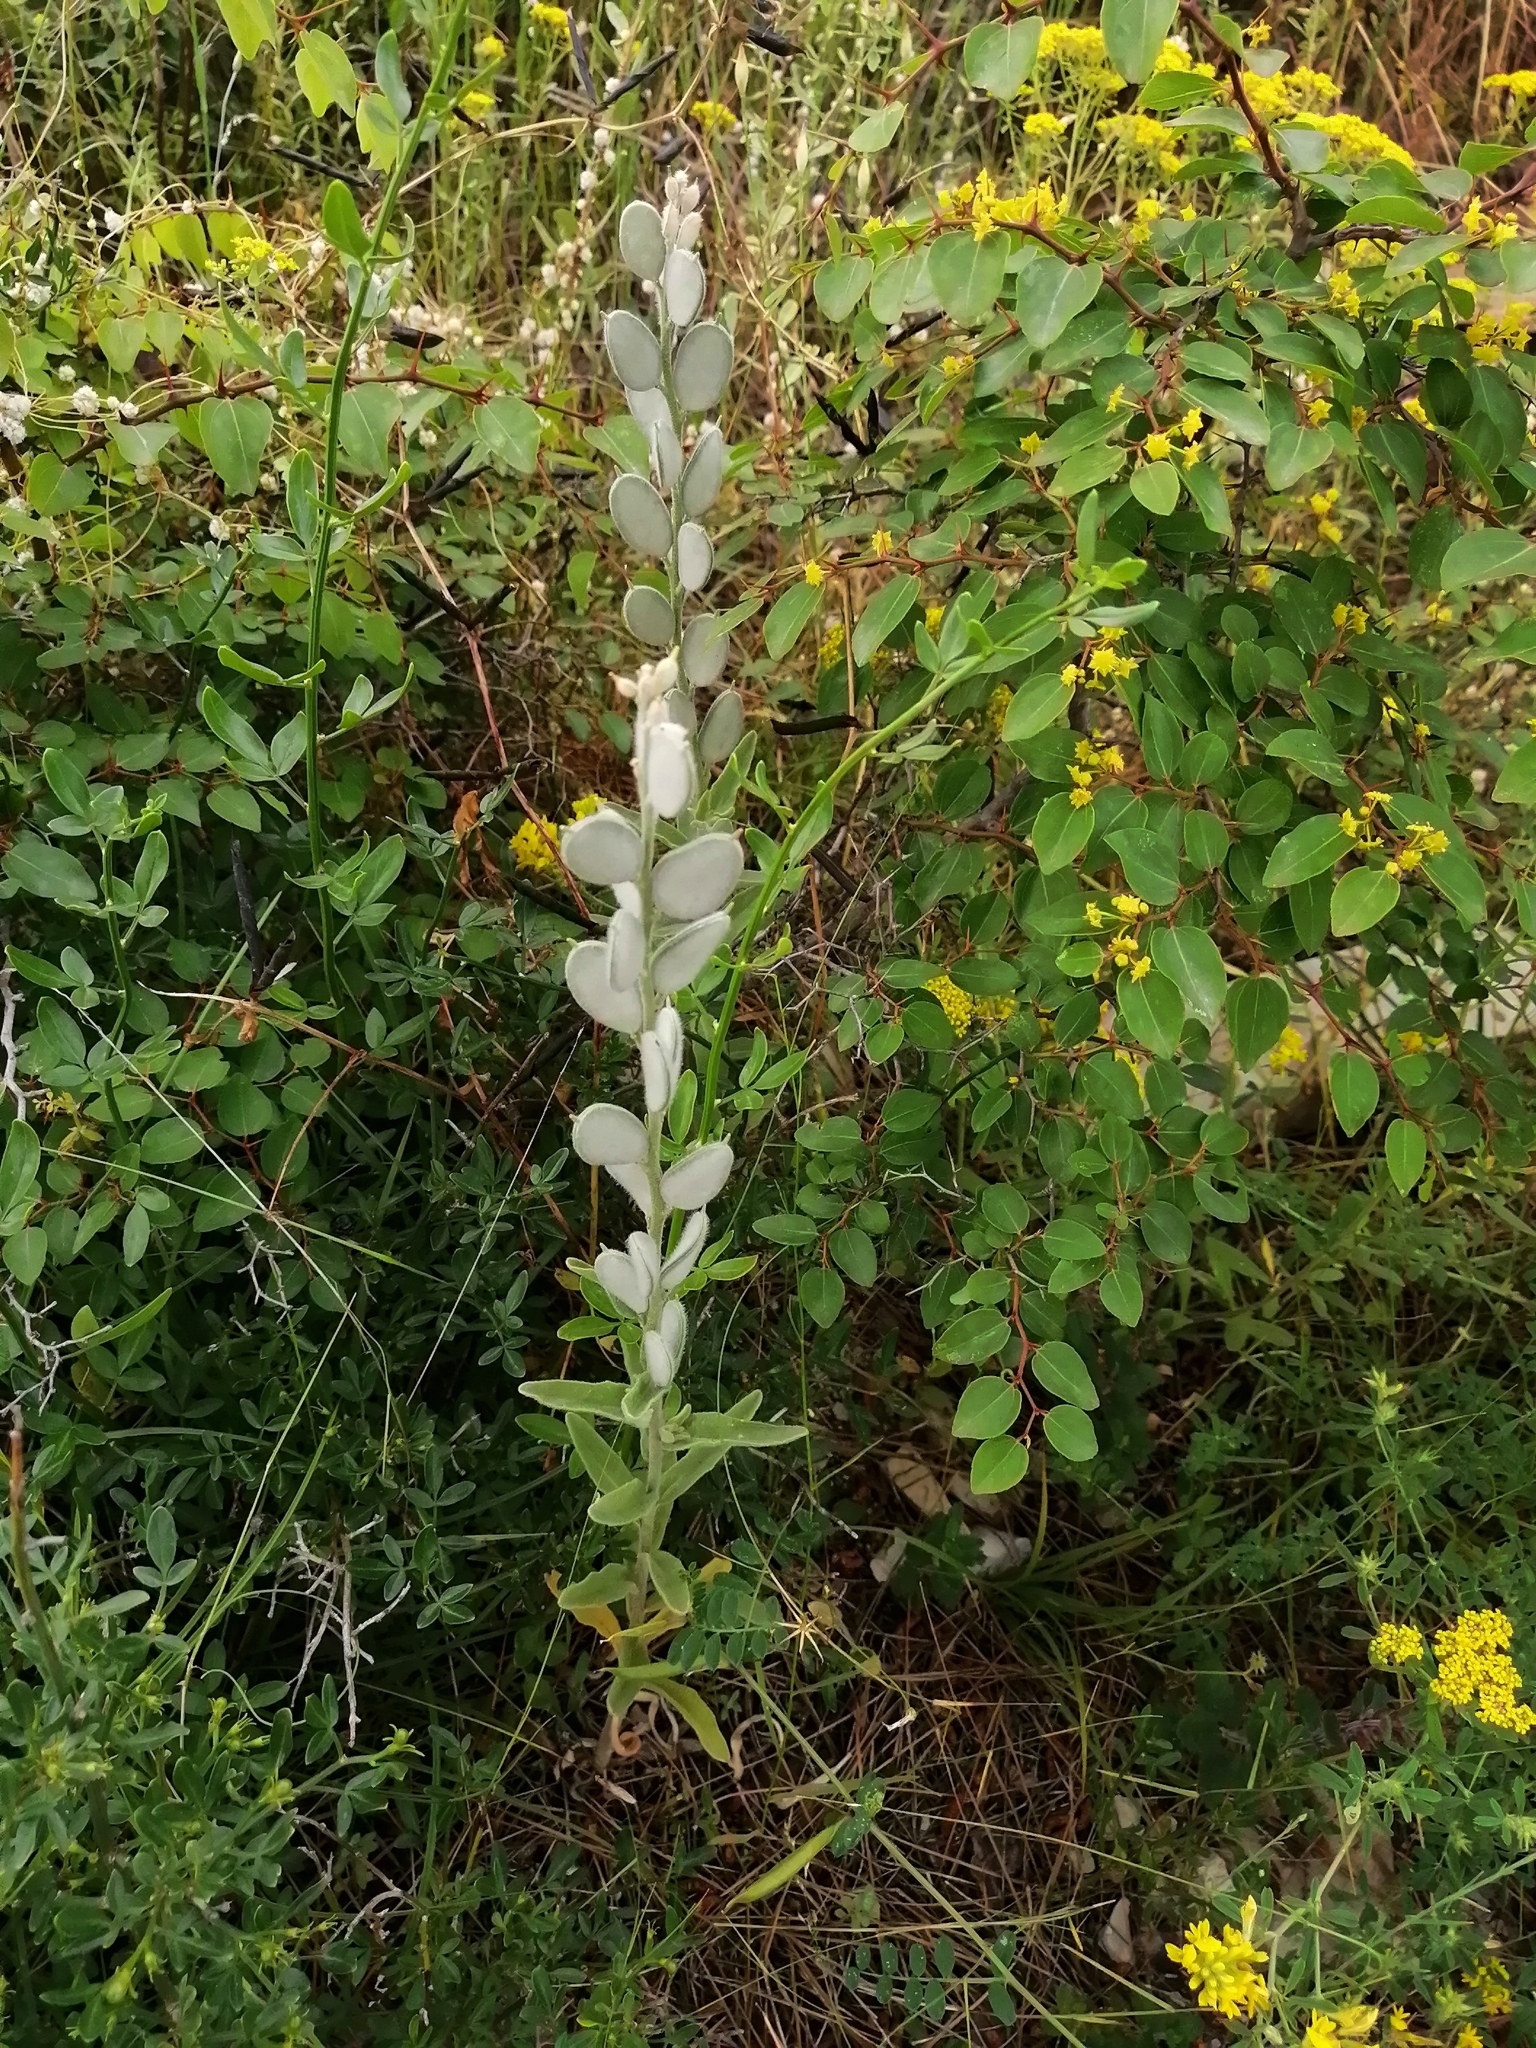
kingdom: Plantae
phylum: Tracheophyta
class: Magnoliopsida
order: Brassicales
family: Brassicaceae
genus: Fibigia
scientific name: Fibigia clypeata
